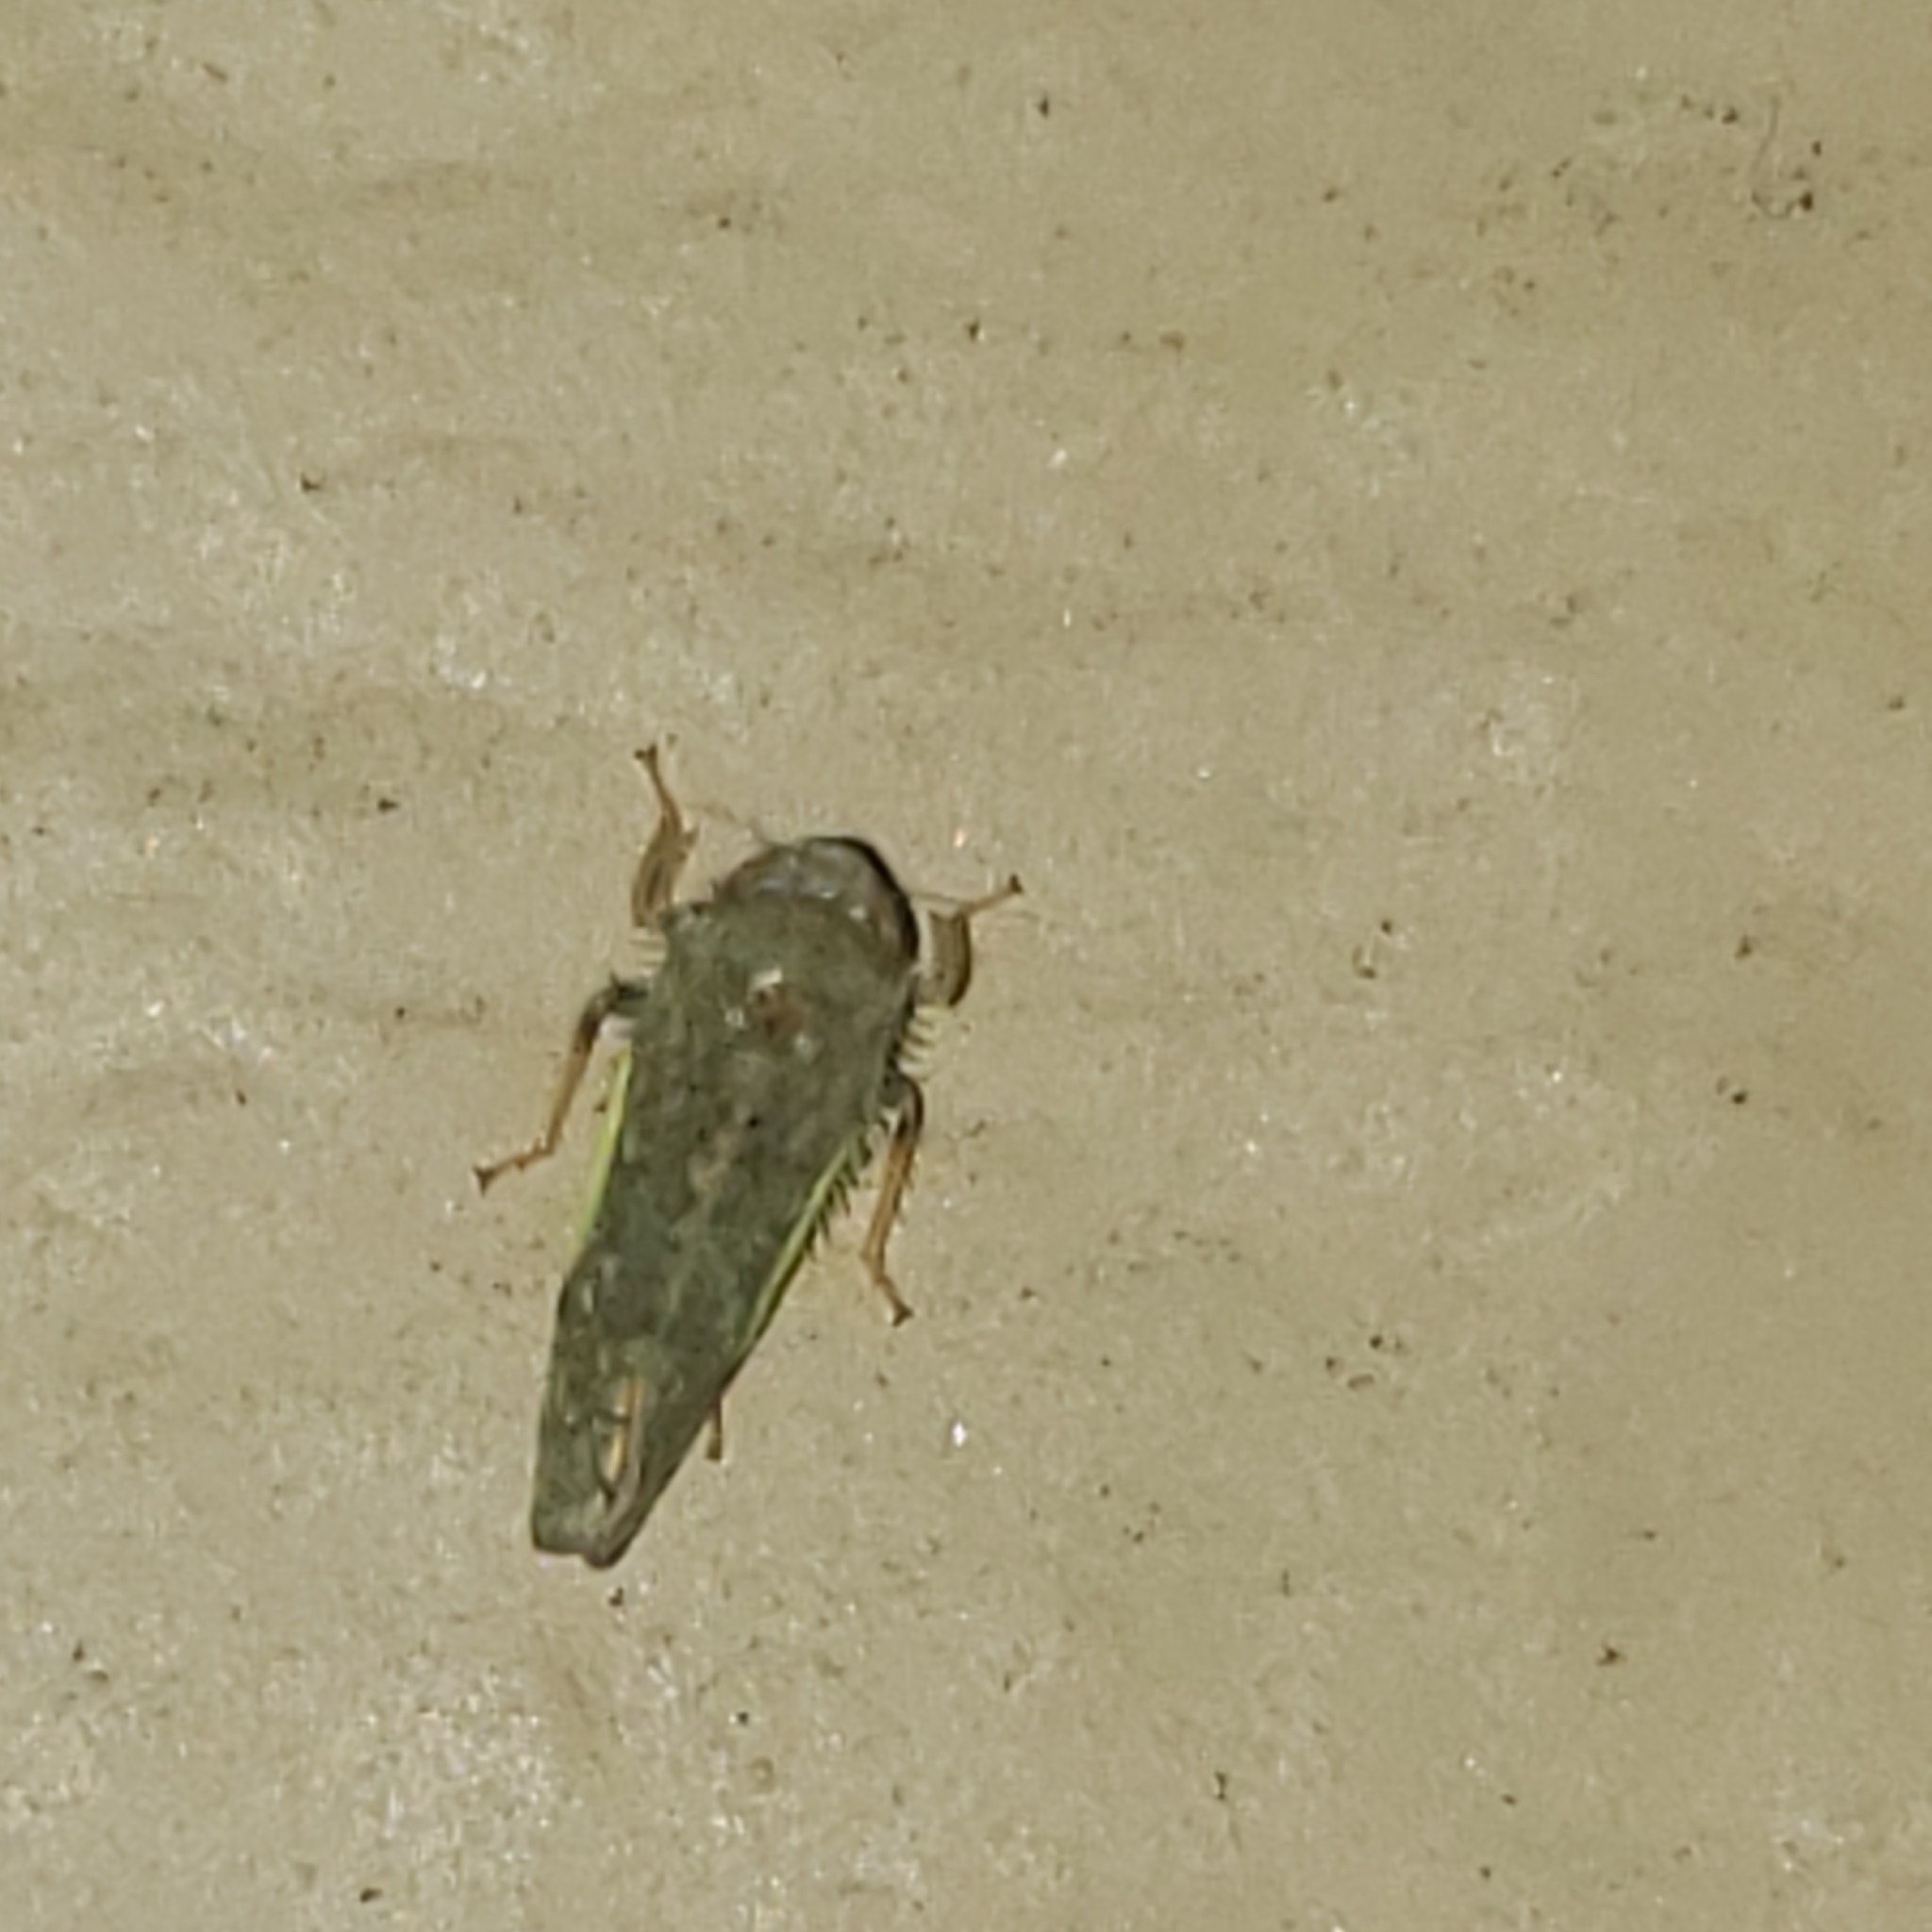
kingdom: Animalia
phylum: Arthropoda
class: Insecta
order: Hemiptera
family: Cicadellidae
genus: Orientus
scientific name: Orientus ishidae
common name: Japanese leafhopper
